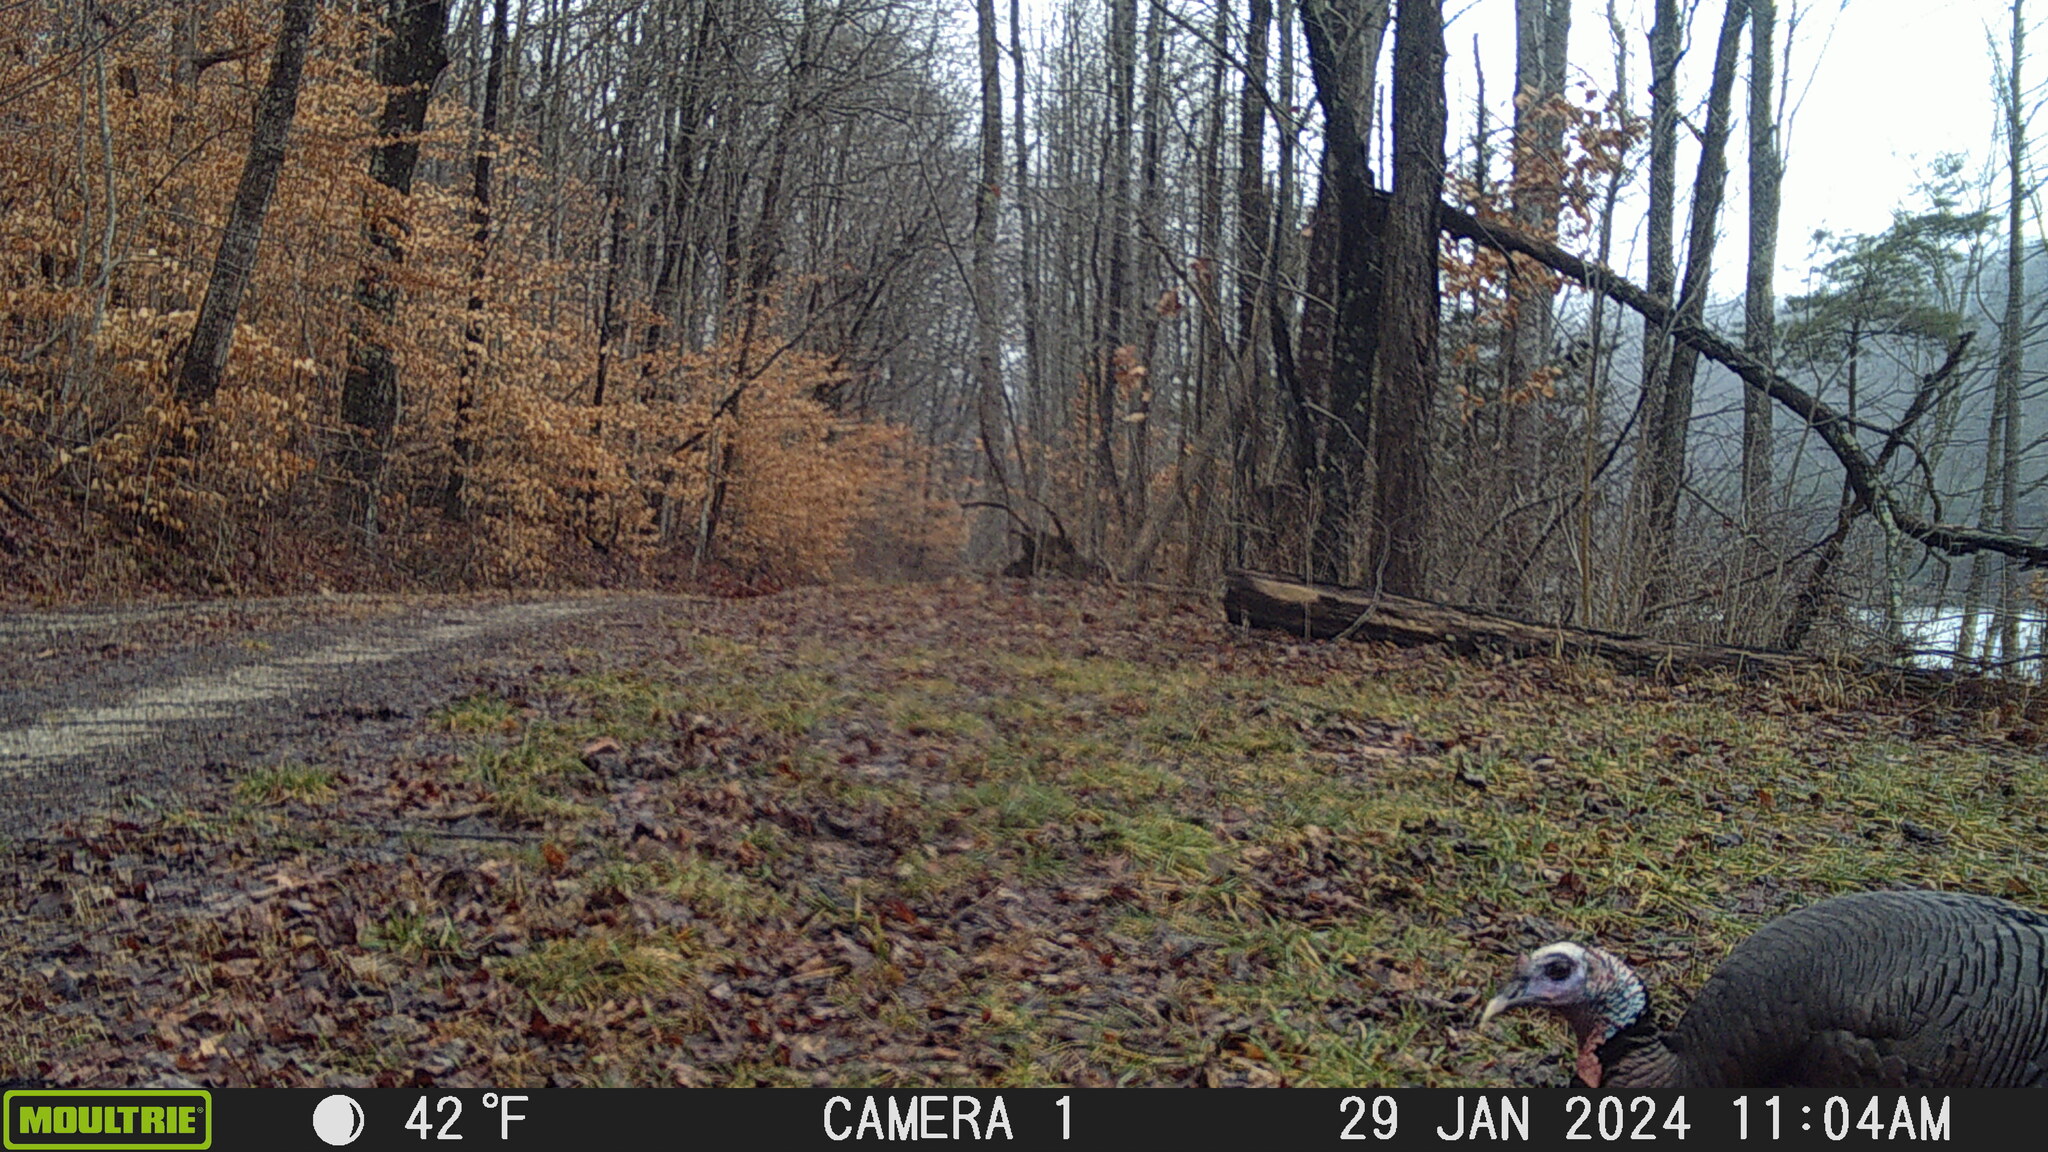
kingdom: Animalia
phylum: Chordata
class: Aves
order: Galliformes
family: Phasianidae
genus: Meleagris
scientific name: Meleagris gallopavo
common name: Wild turkey
